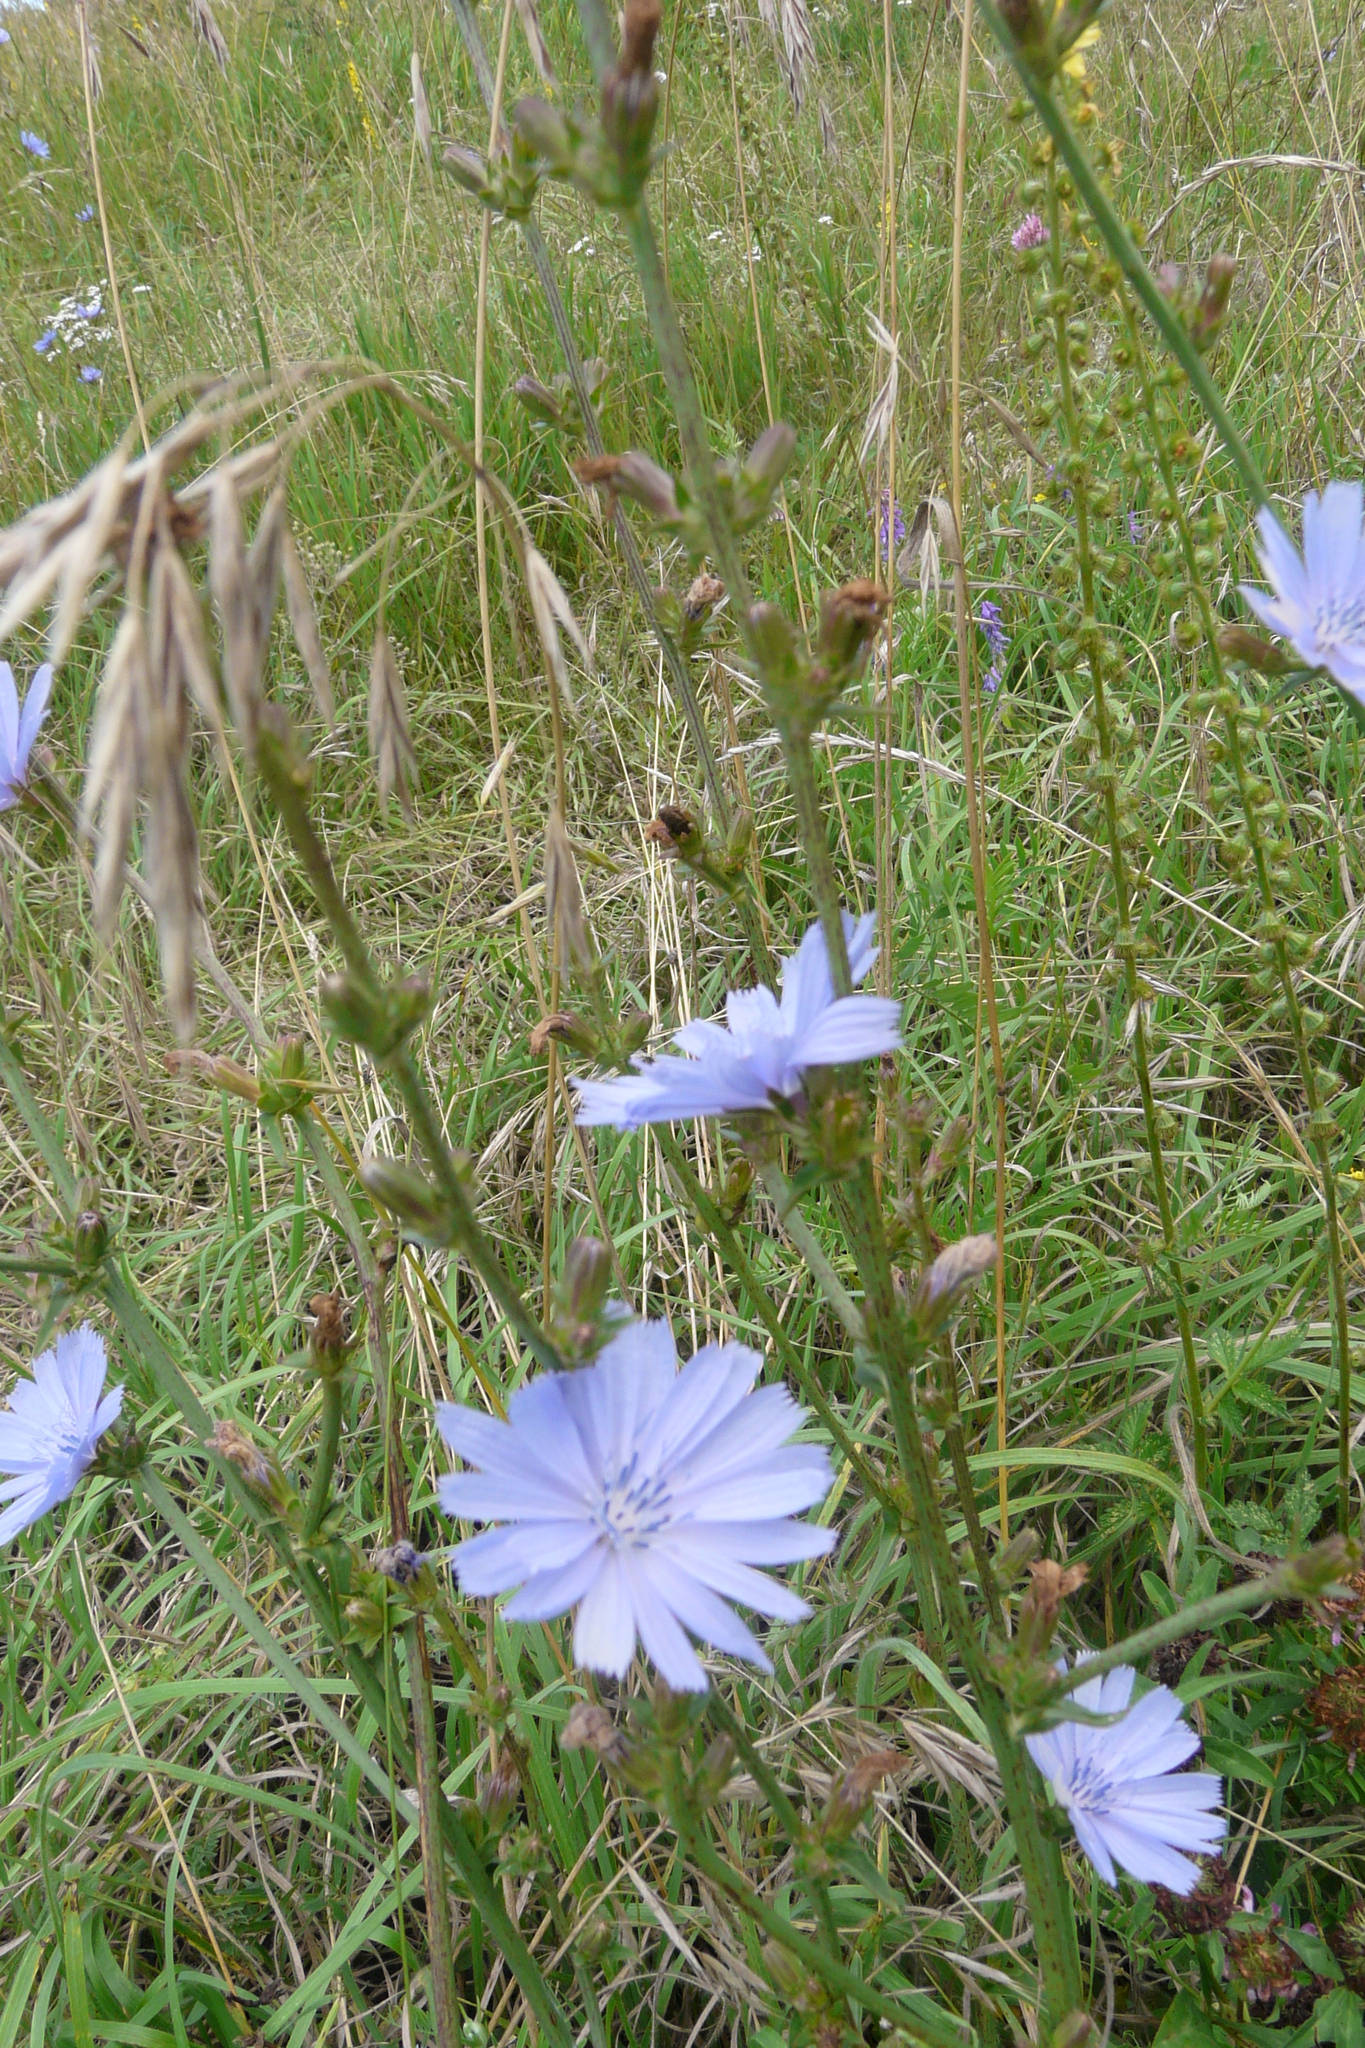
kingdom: Plantae
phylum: Tracheophyta
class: Magnoliopsida
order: Asterales
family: Asteraceae
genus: Cichorium
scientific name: Cichorium intybus
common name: Chicory
